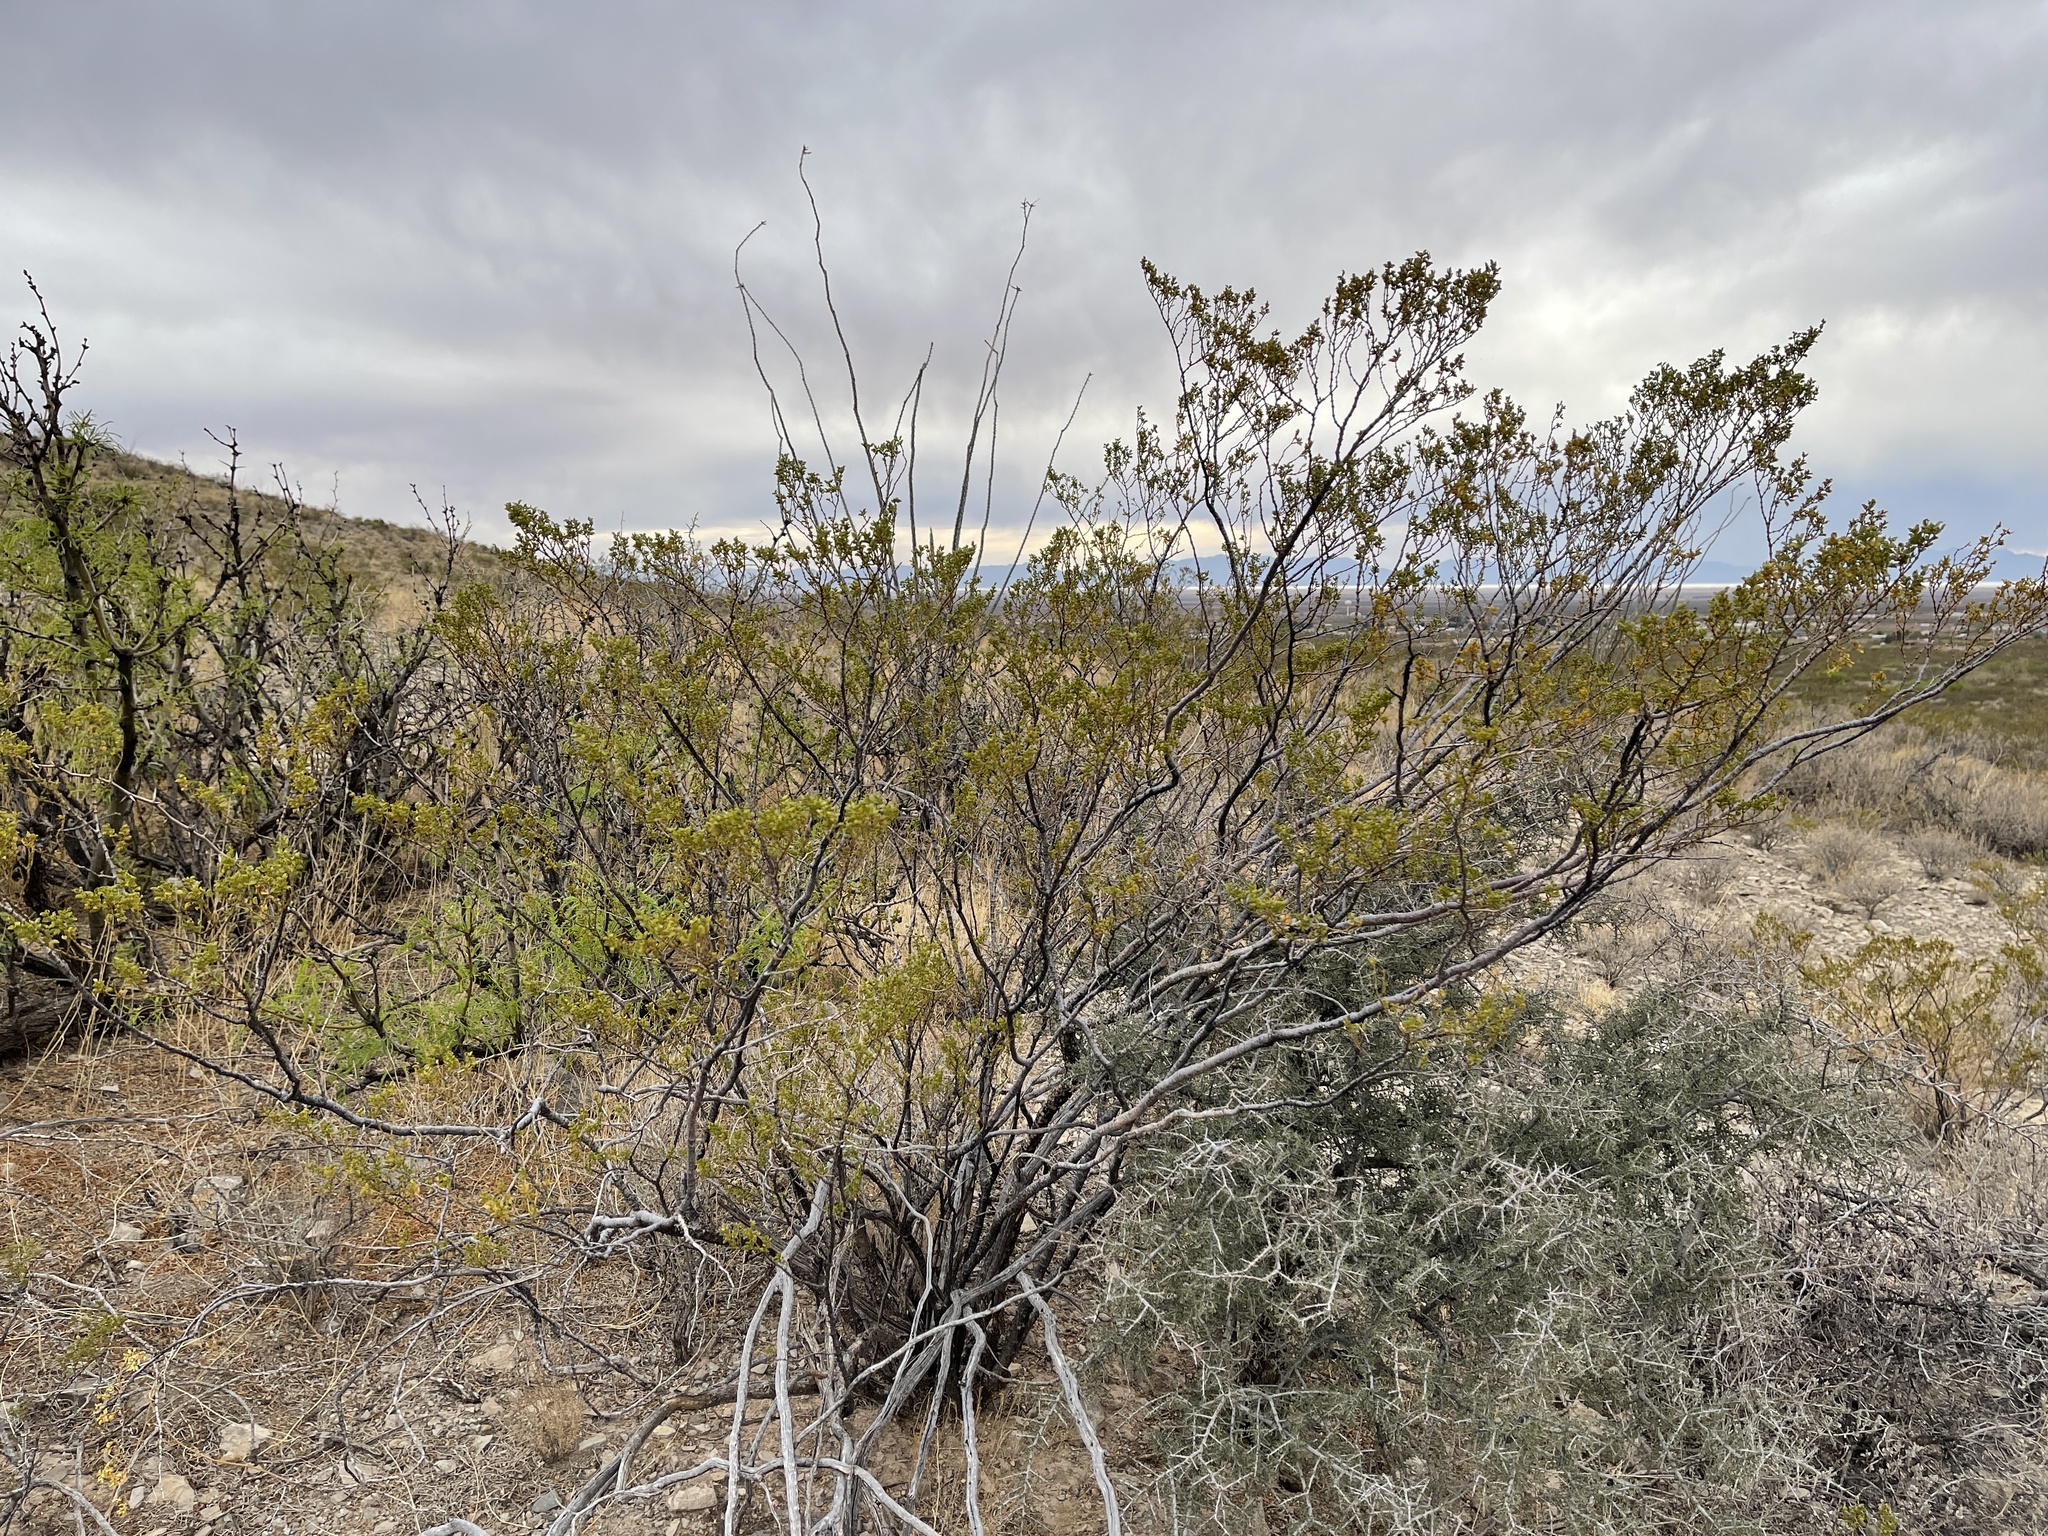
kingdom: Plantae
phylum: Tracheophyta
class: Magnoliopsida
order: Zygophyllales
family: Zygophyllaceae
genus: Larrea
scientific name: Larrea tridentata
